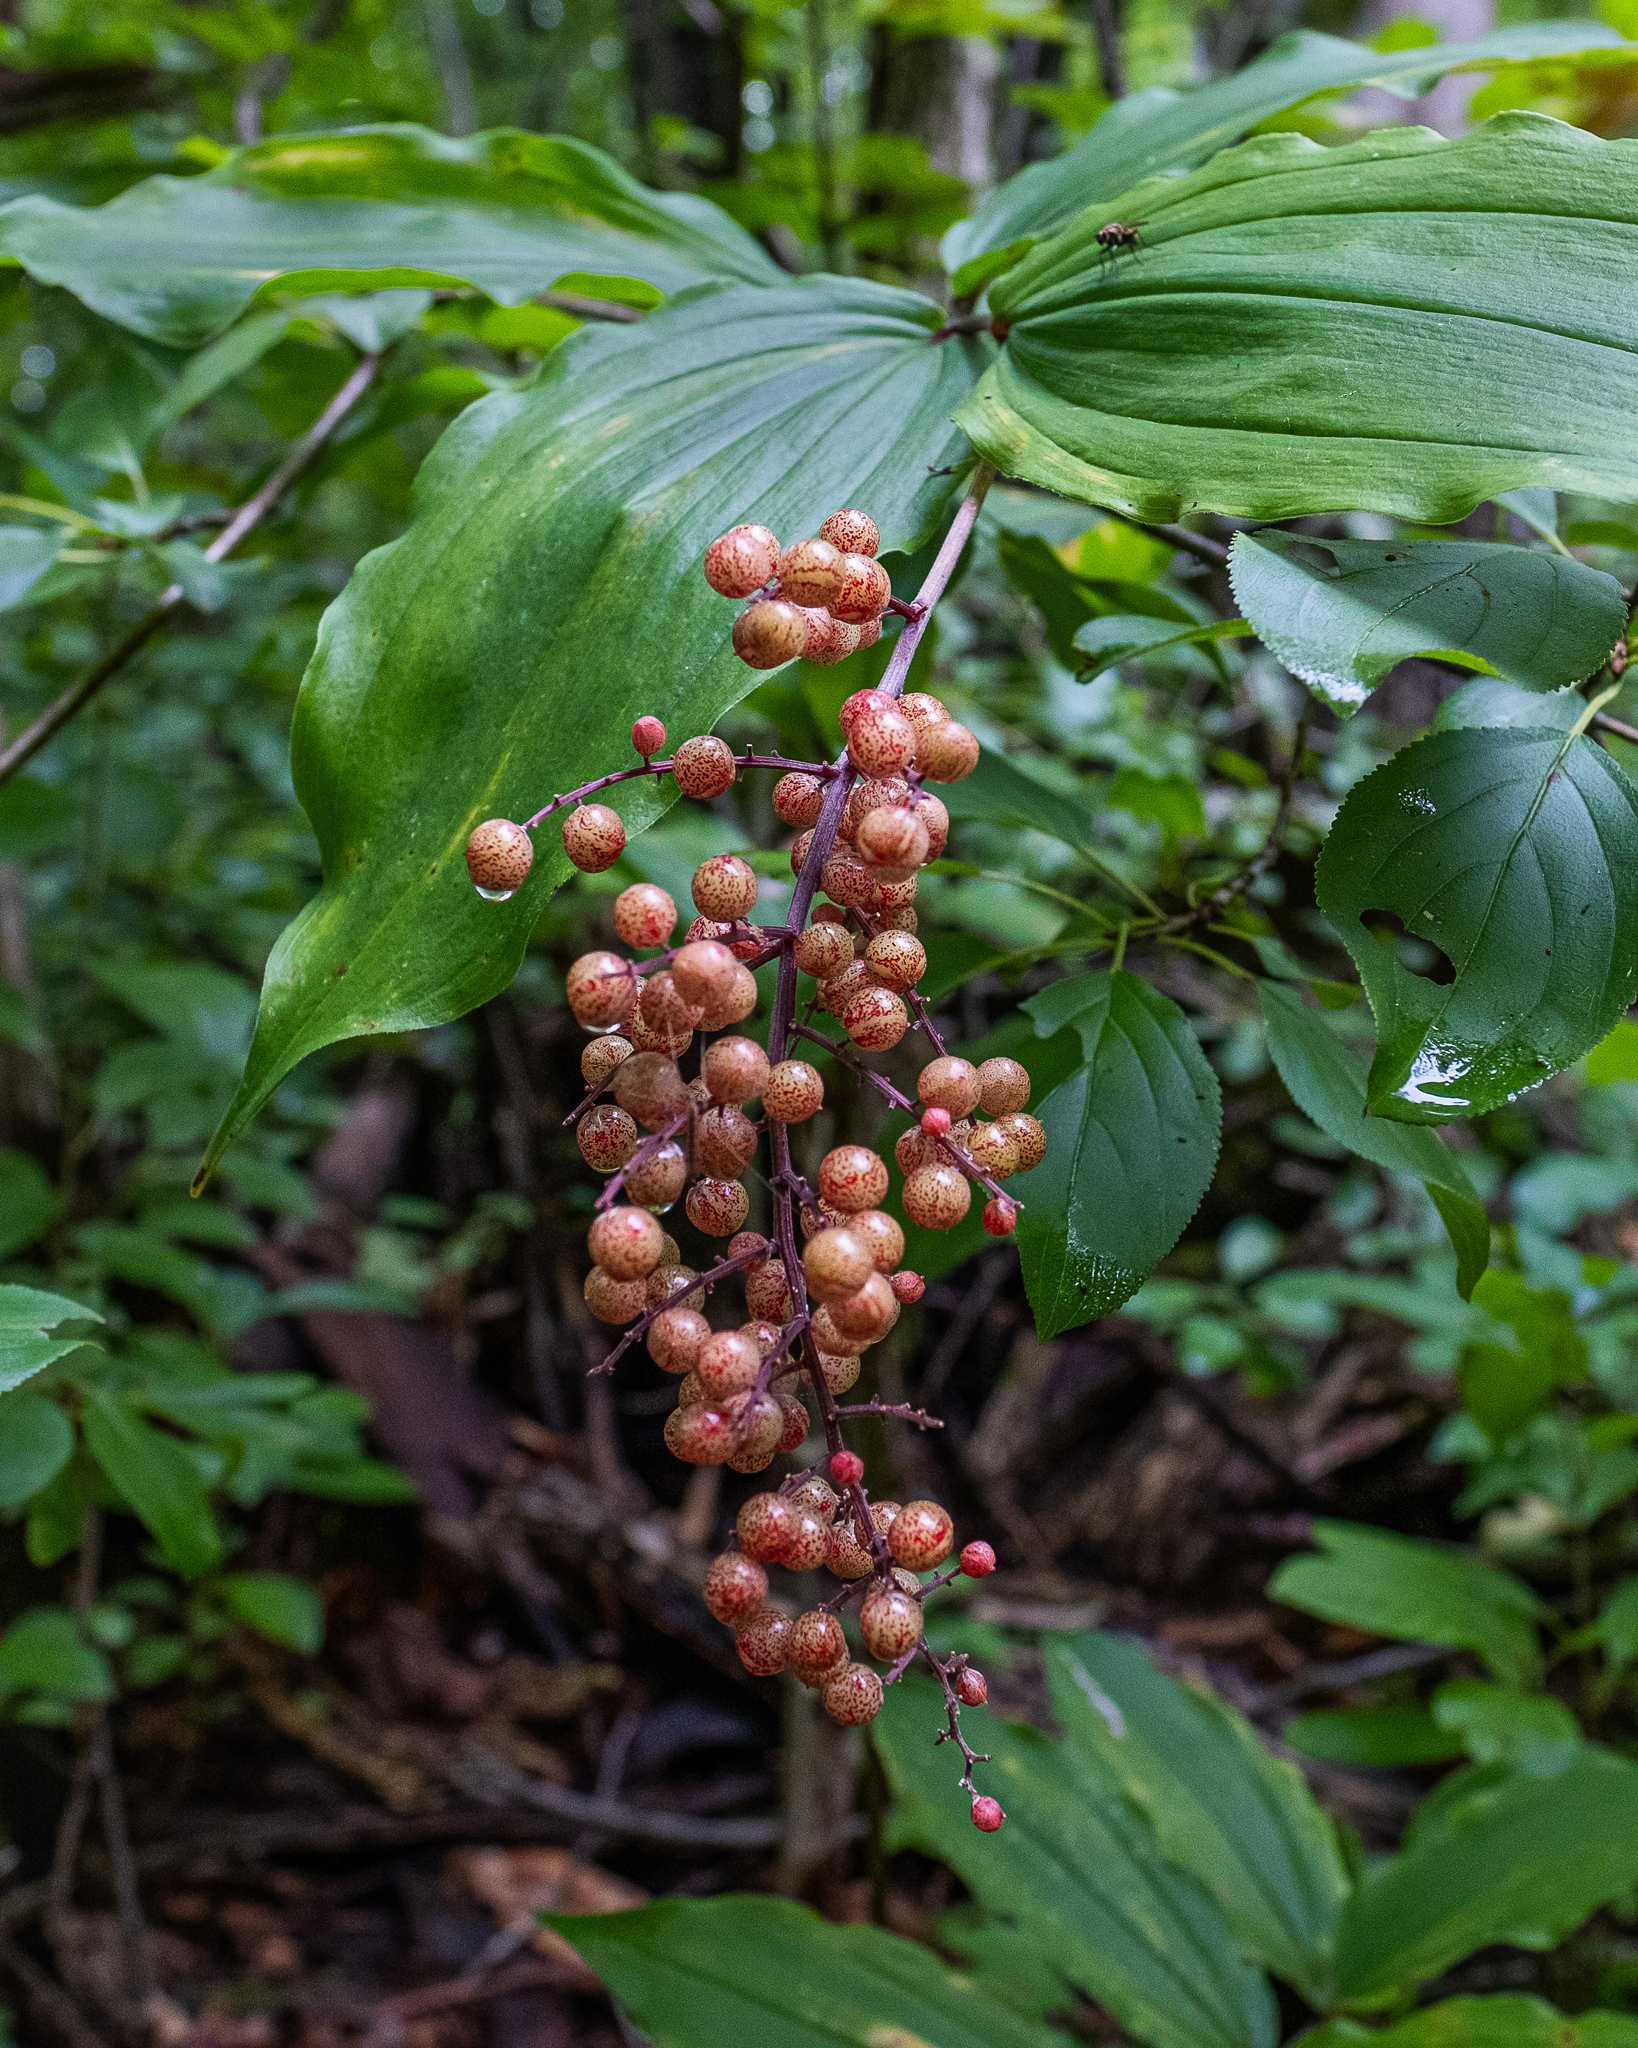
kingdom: Plantae
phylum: Tracheophyta
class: Liliopsida
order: Asparagales
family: Asparagaceae
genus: Maianthemum
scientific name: Maianthemum racemosum
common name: False spikenard
